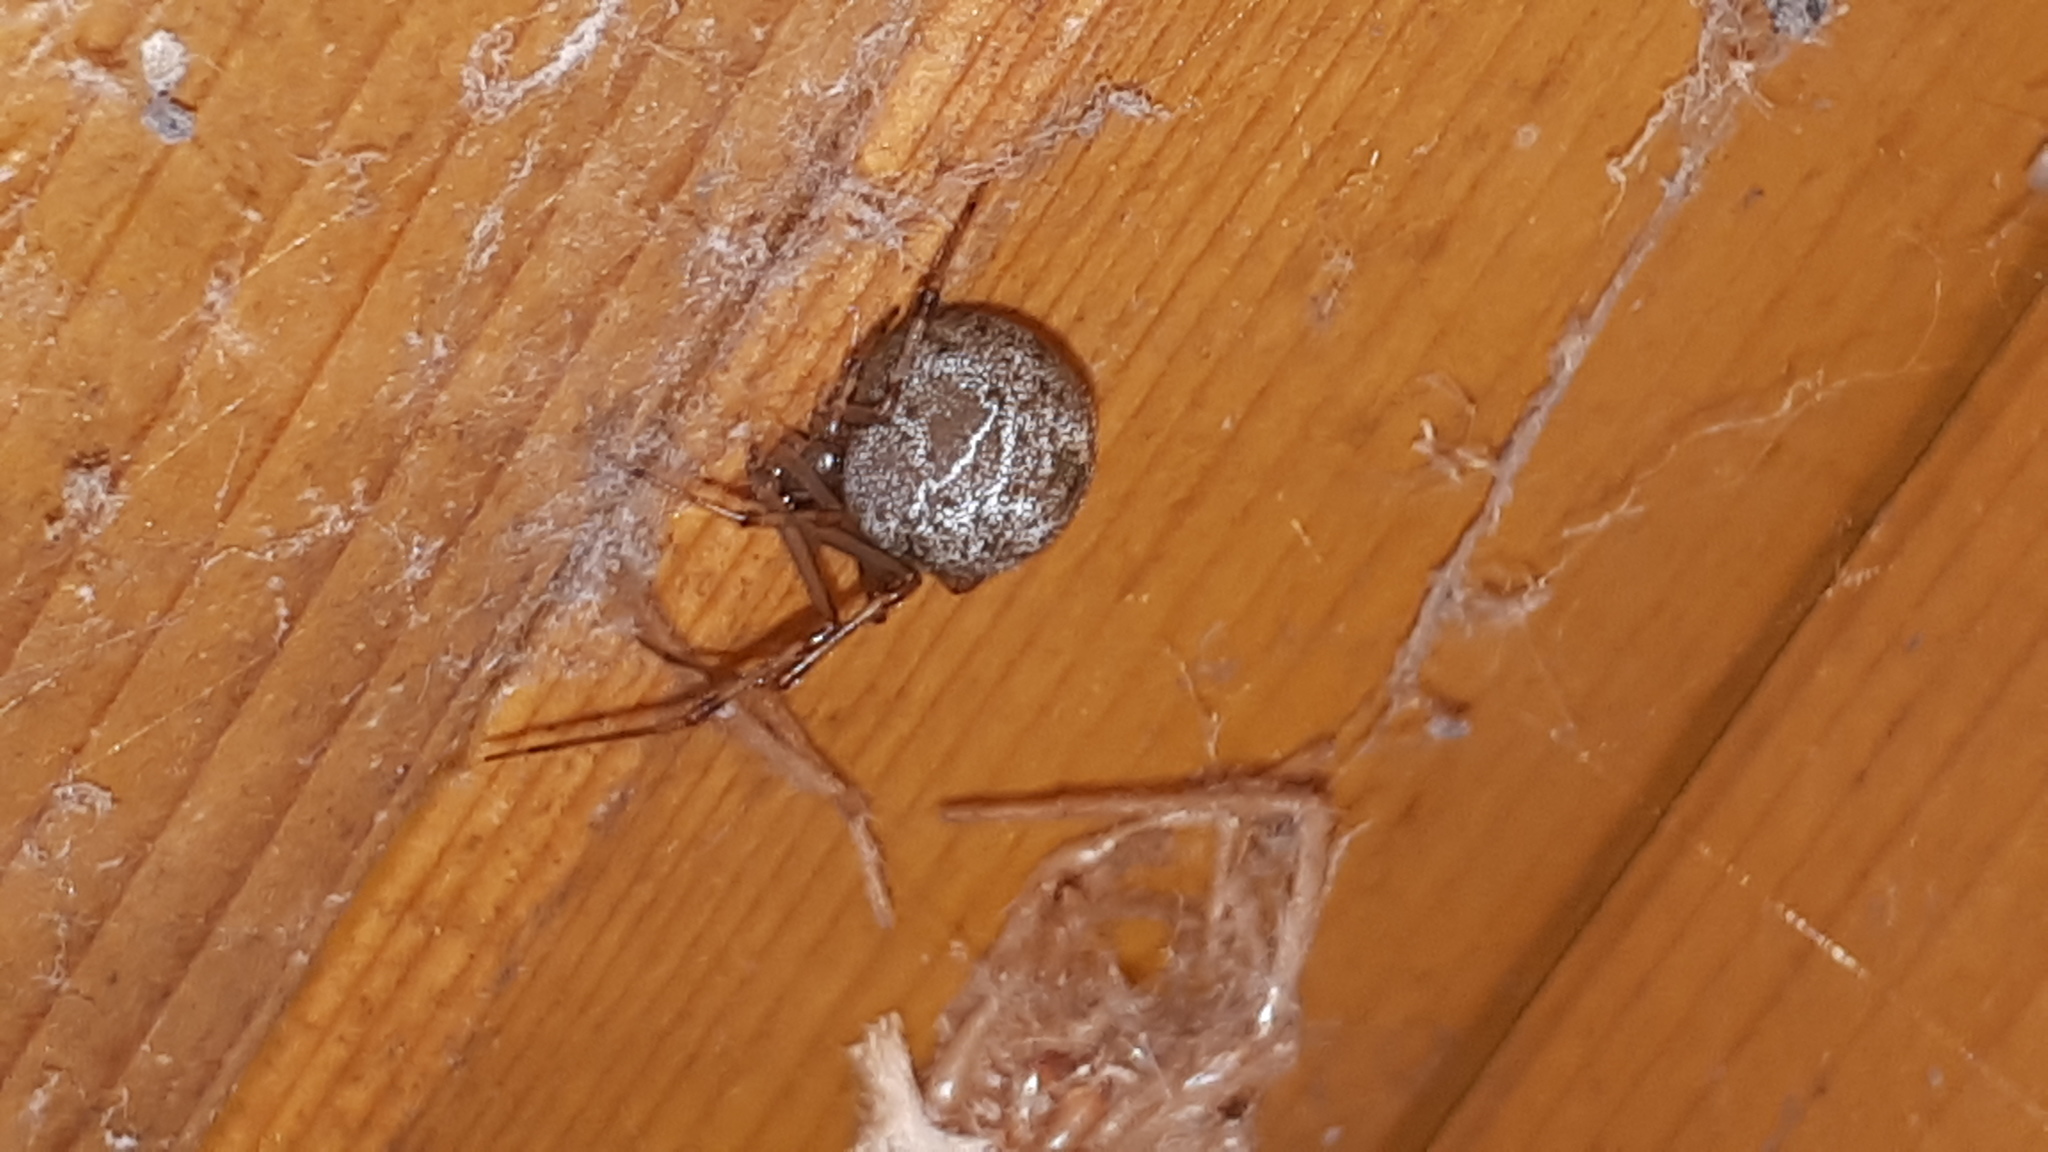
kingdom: Animalia
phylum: Arthropoda
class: Arachnida
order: Araneae
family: Theridiidae
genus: Parasteatoda
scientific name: Parasteatoda tepidariorum
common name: Common house spider
